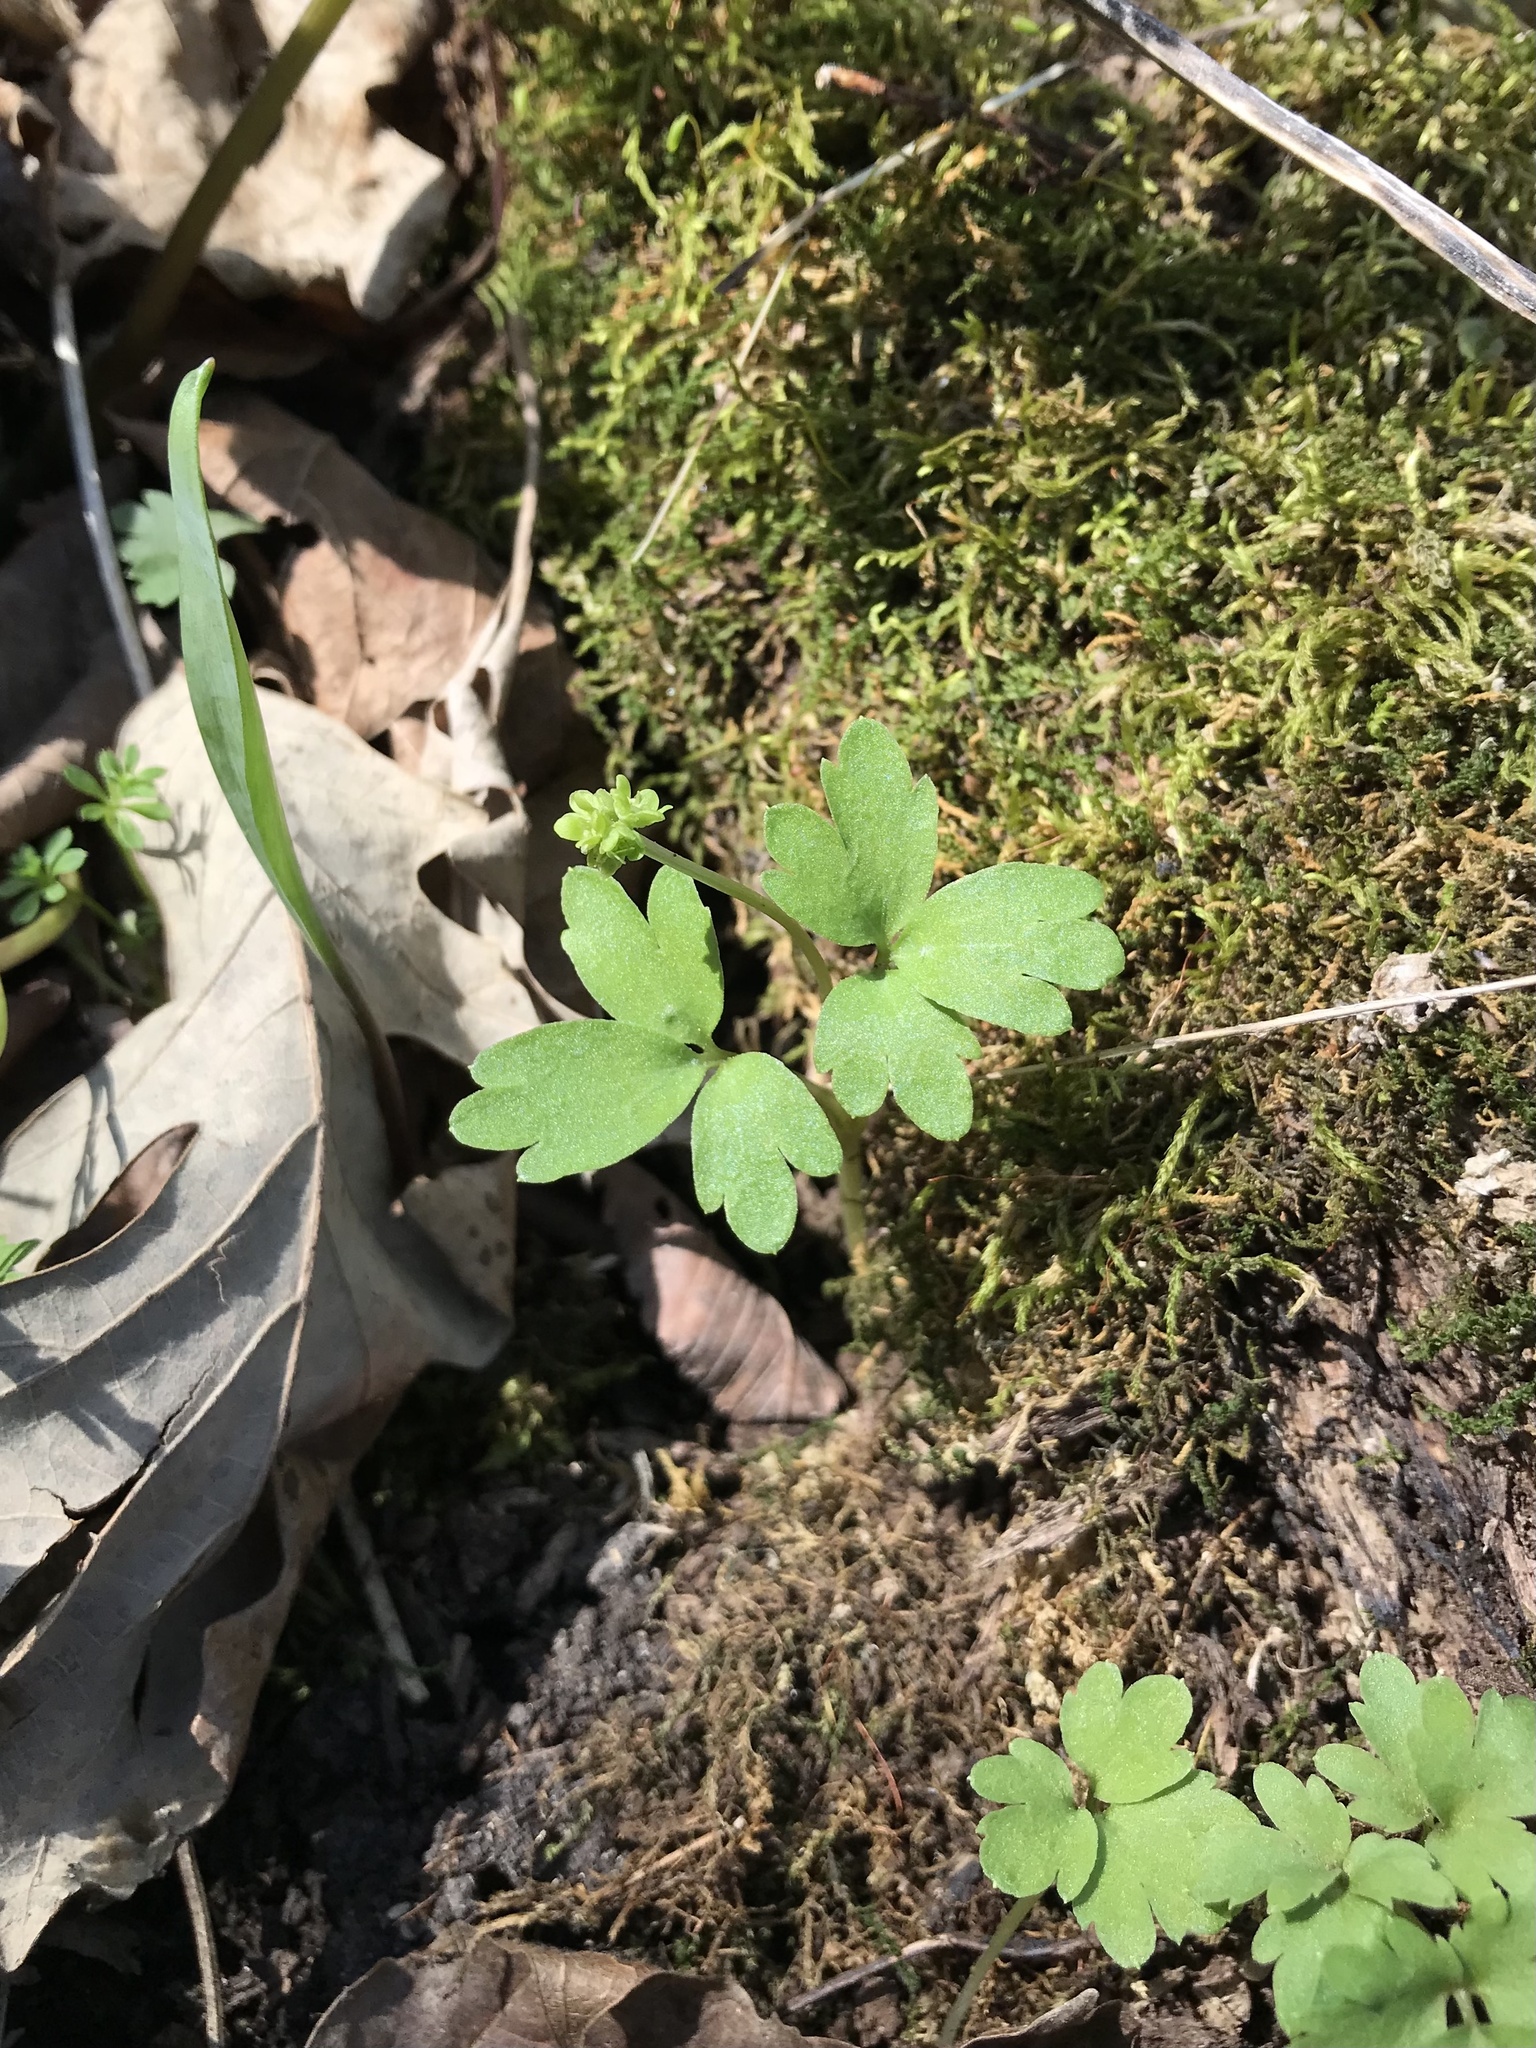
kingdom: Plantae
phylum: Tracheophyta
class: Magnoliopsida
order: Dipsacales
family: Viburnaceae
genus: Adoxa
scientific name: Adoxa moschatellina
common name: Moschatel
